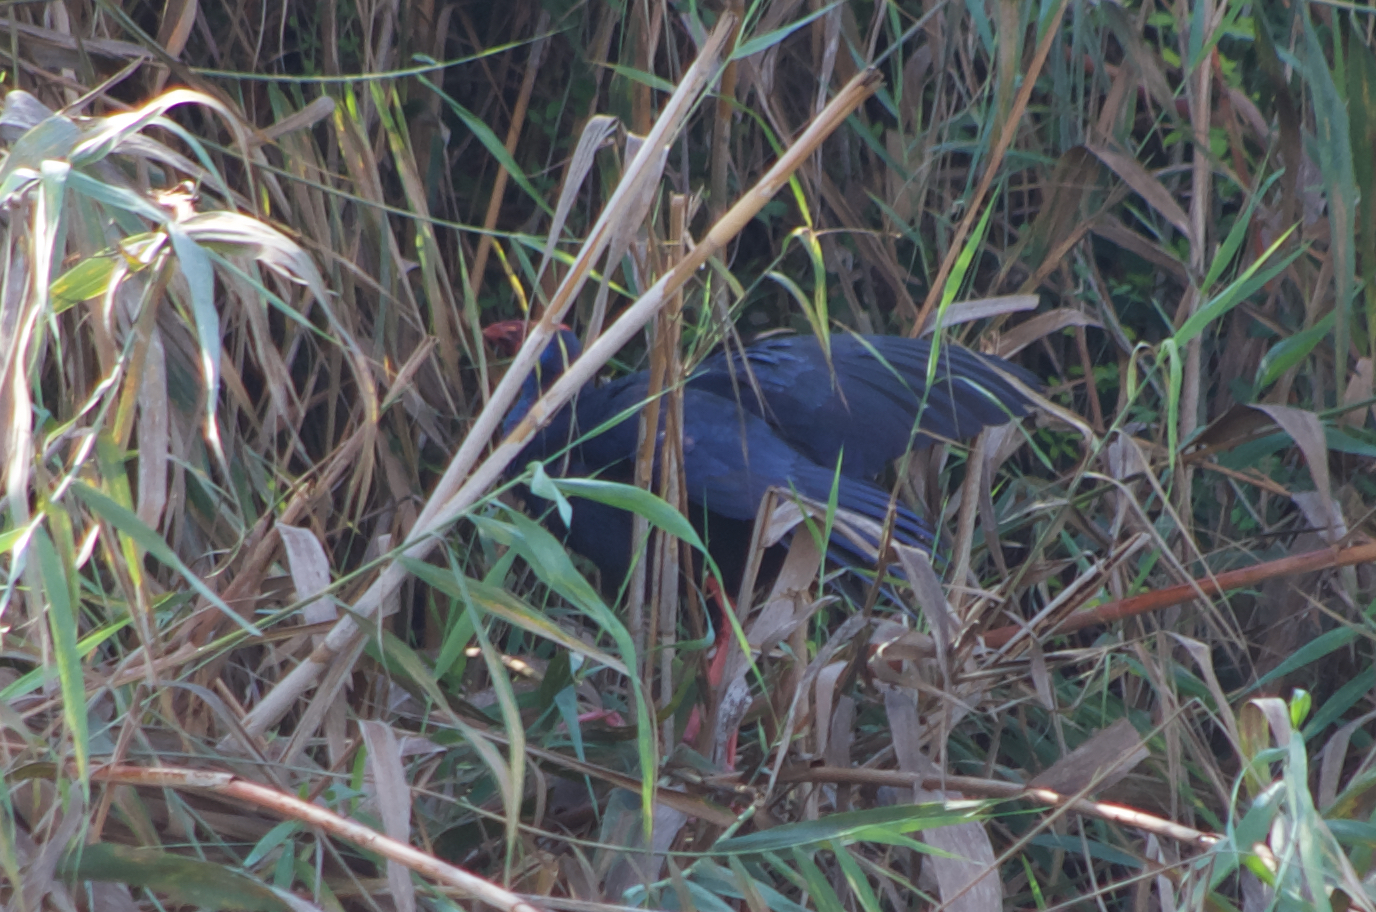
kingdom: Animalia
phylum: Chordata
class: Aves
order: Gruiformes
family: Rallidae
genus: Porphyrio
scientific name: Porphyrio porphyrio
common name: Purple swamphen
